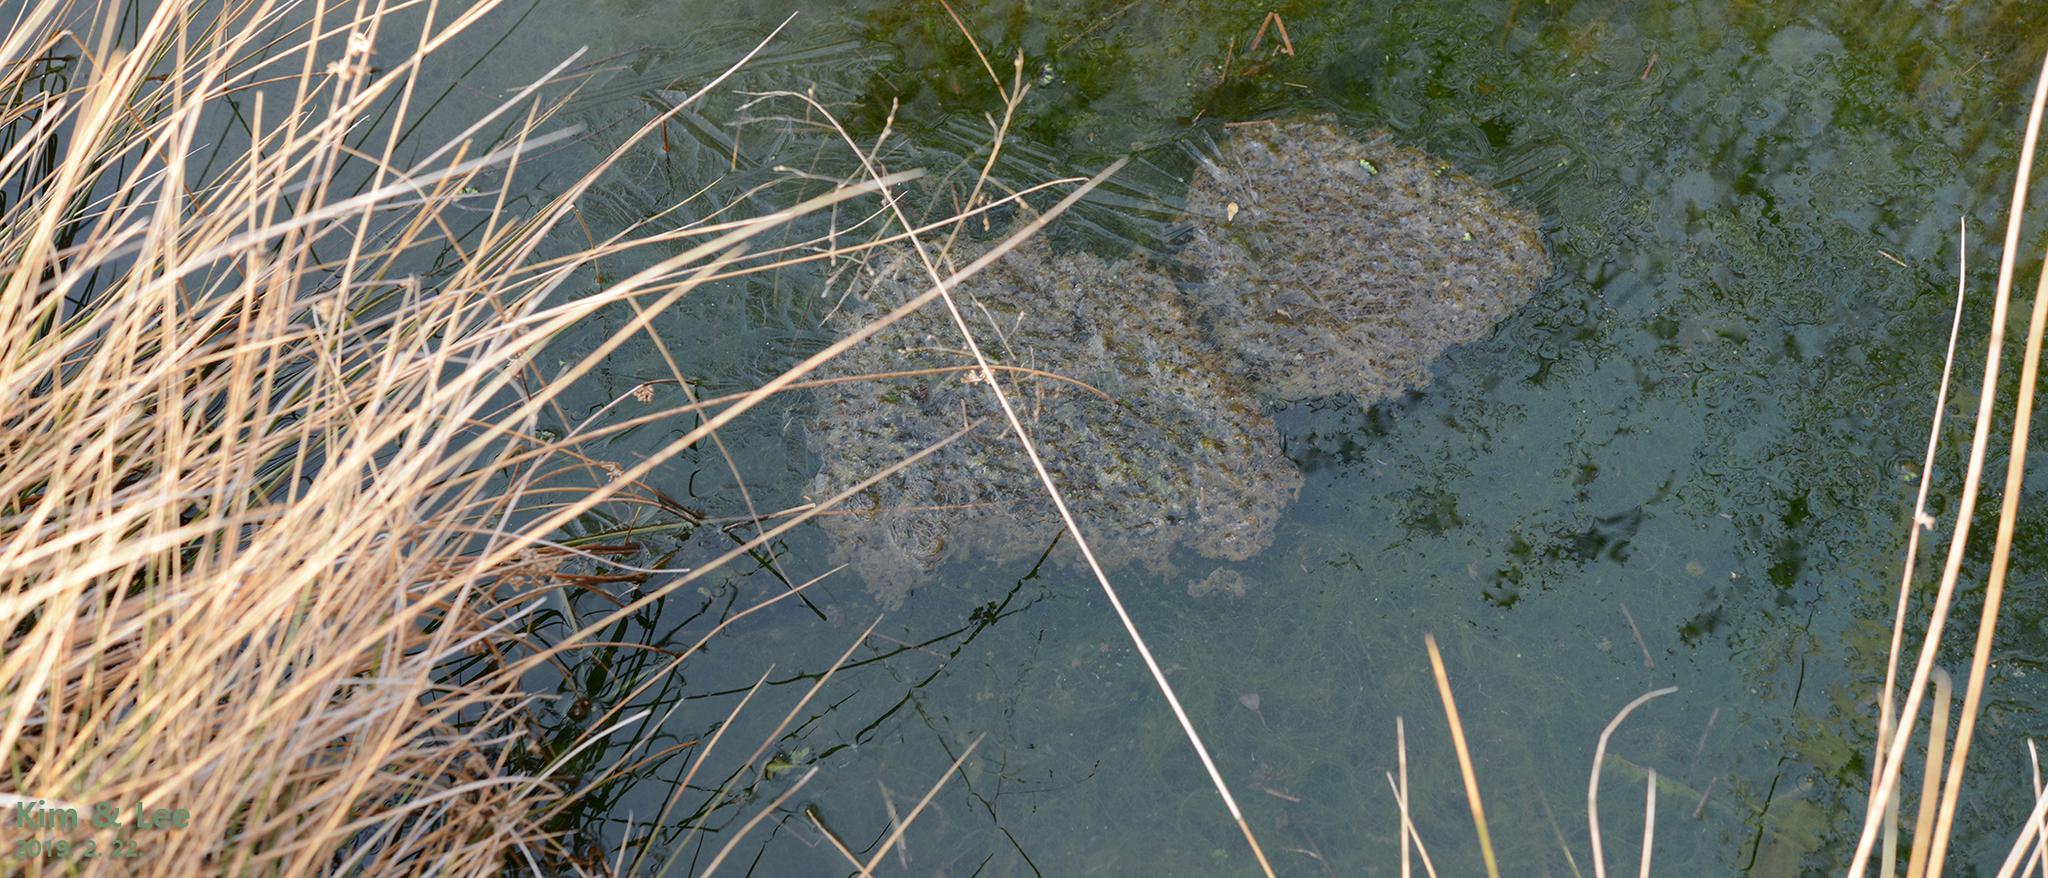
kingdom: Animalia
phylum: Chordata
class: Amphibia
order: Anura
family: Ranidae
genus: Rana
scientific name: Rana uenoi
